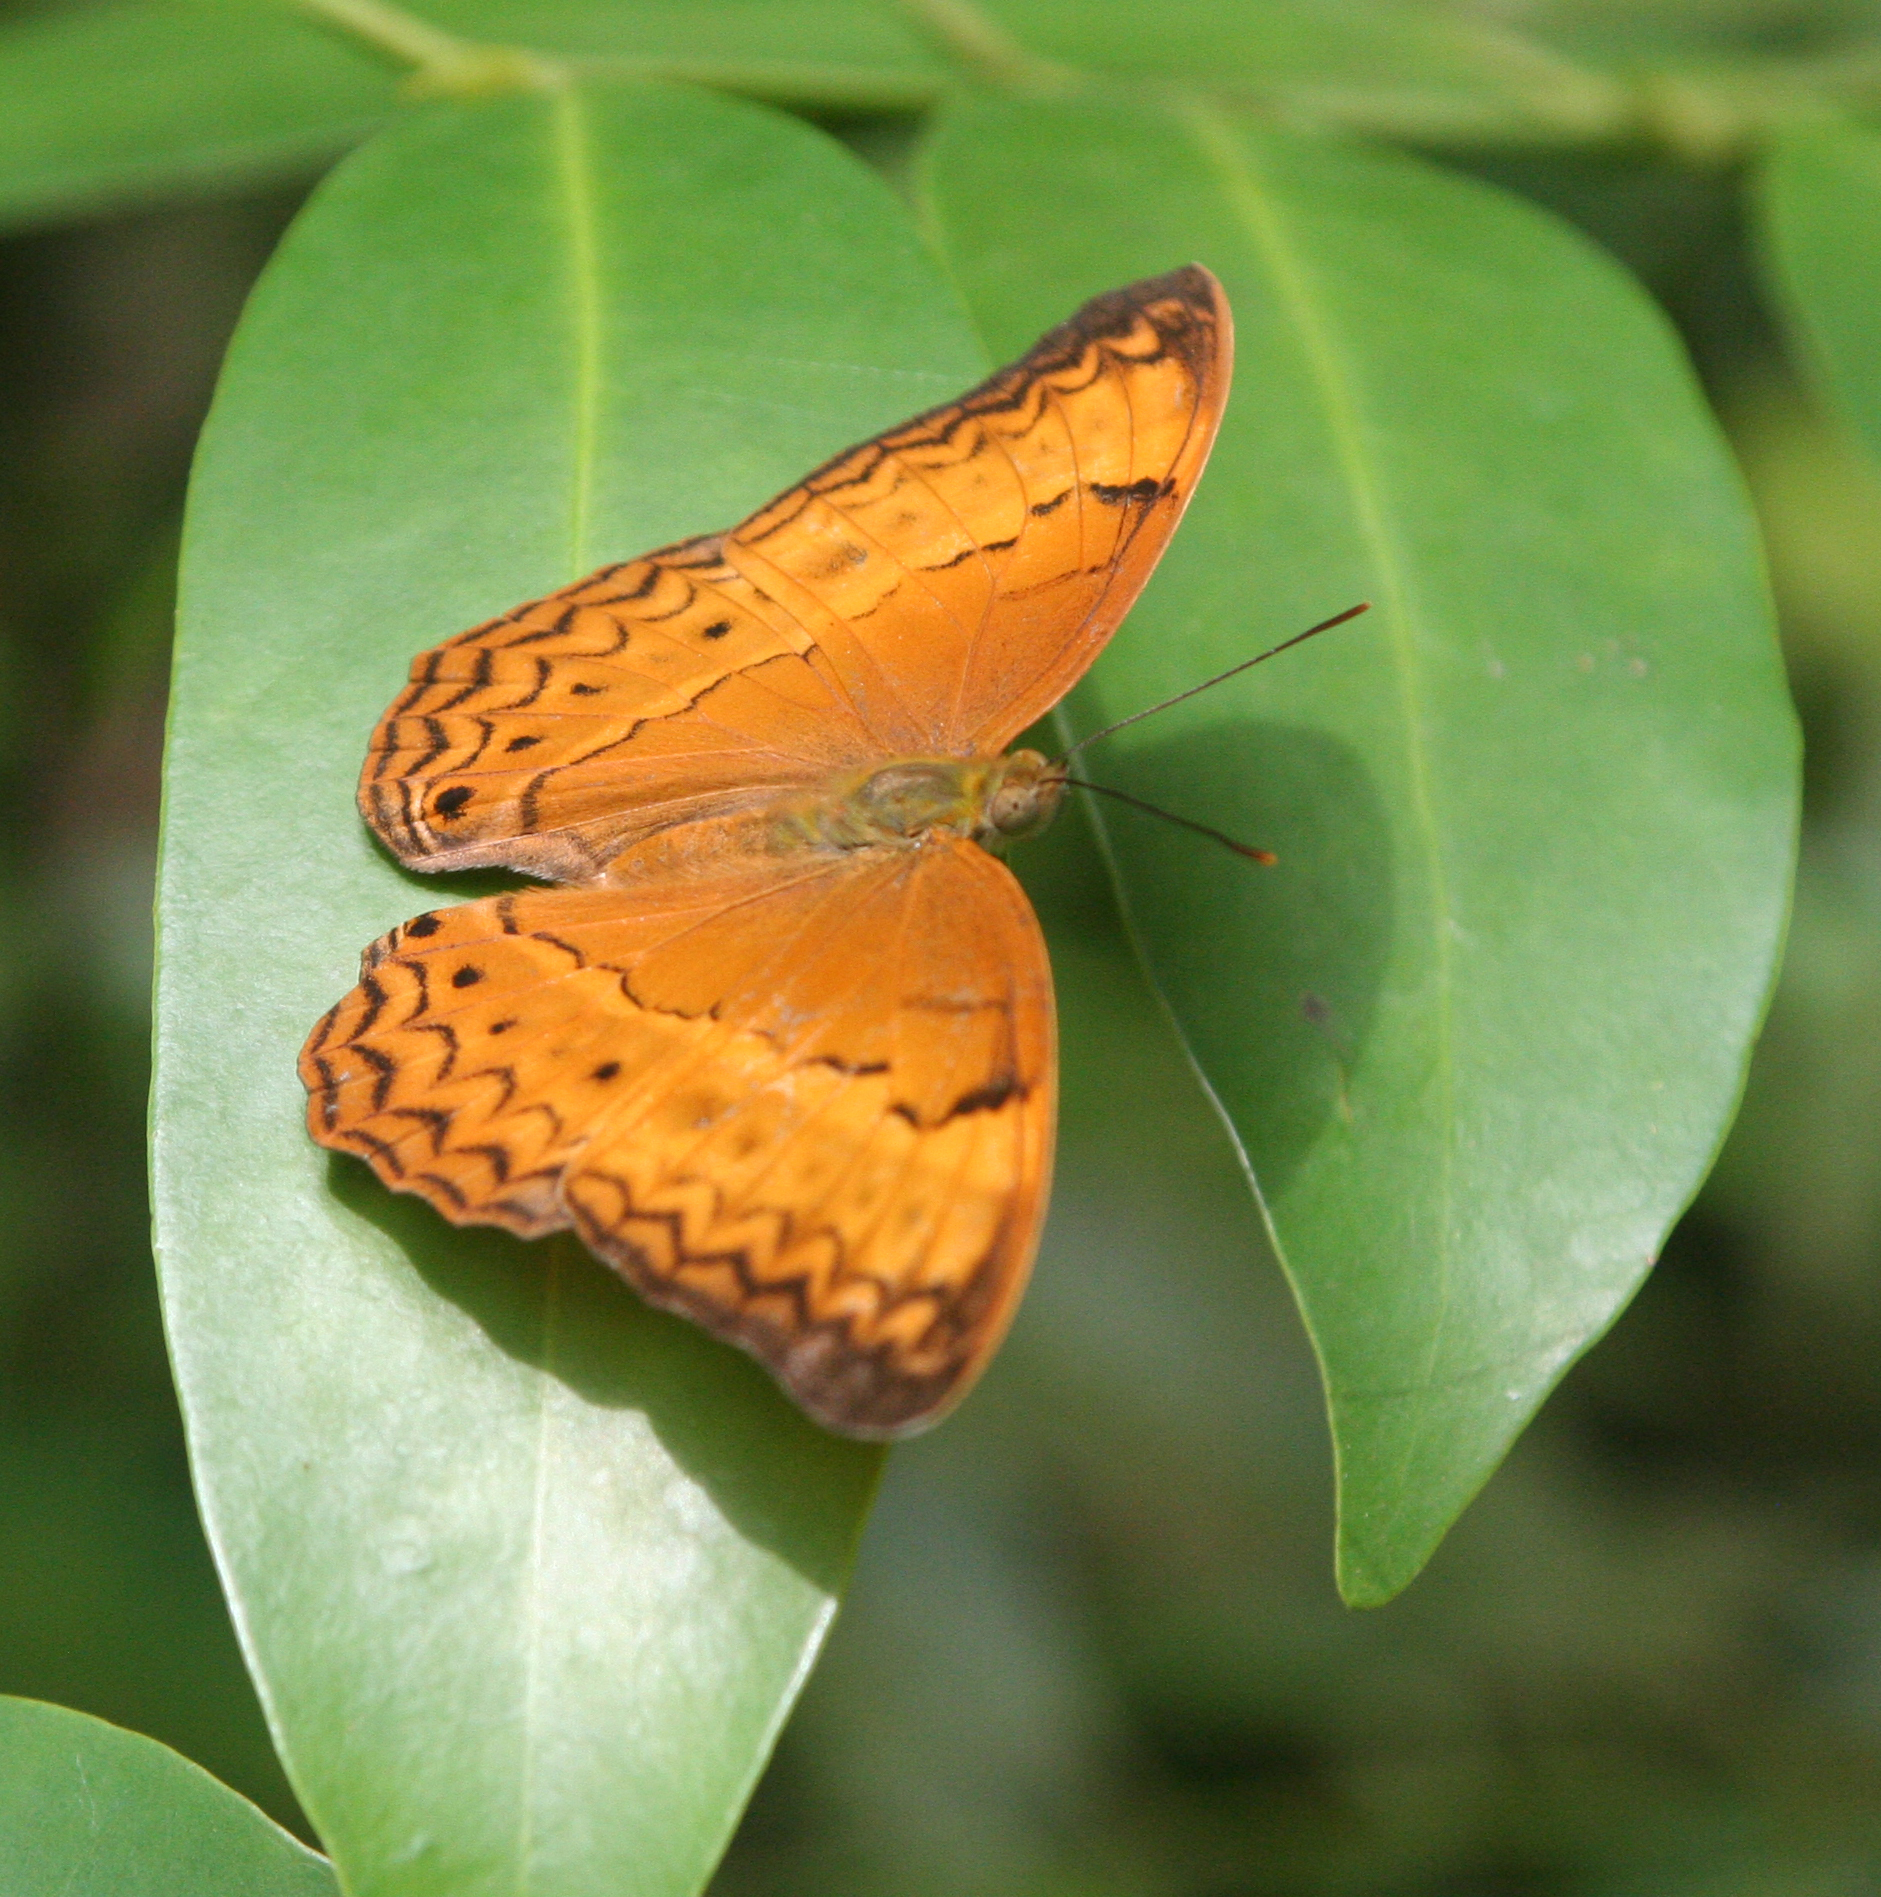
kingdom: Animalia
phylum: Arthropoda
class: Insecta
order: Lepidoptera
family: Nymphalidae
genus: Cirrochroa
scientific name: Cirrochroa surya
